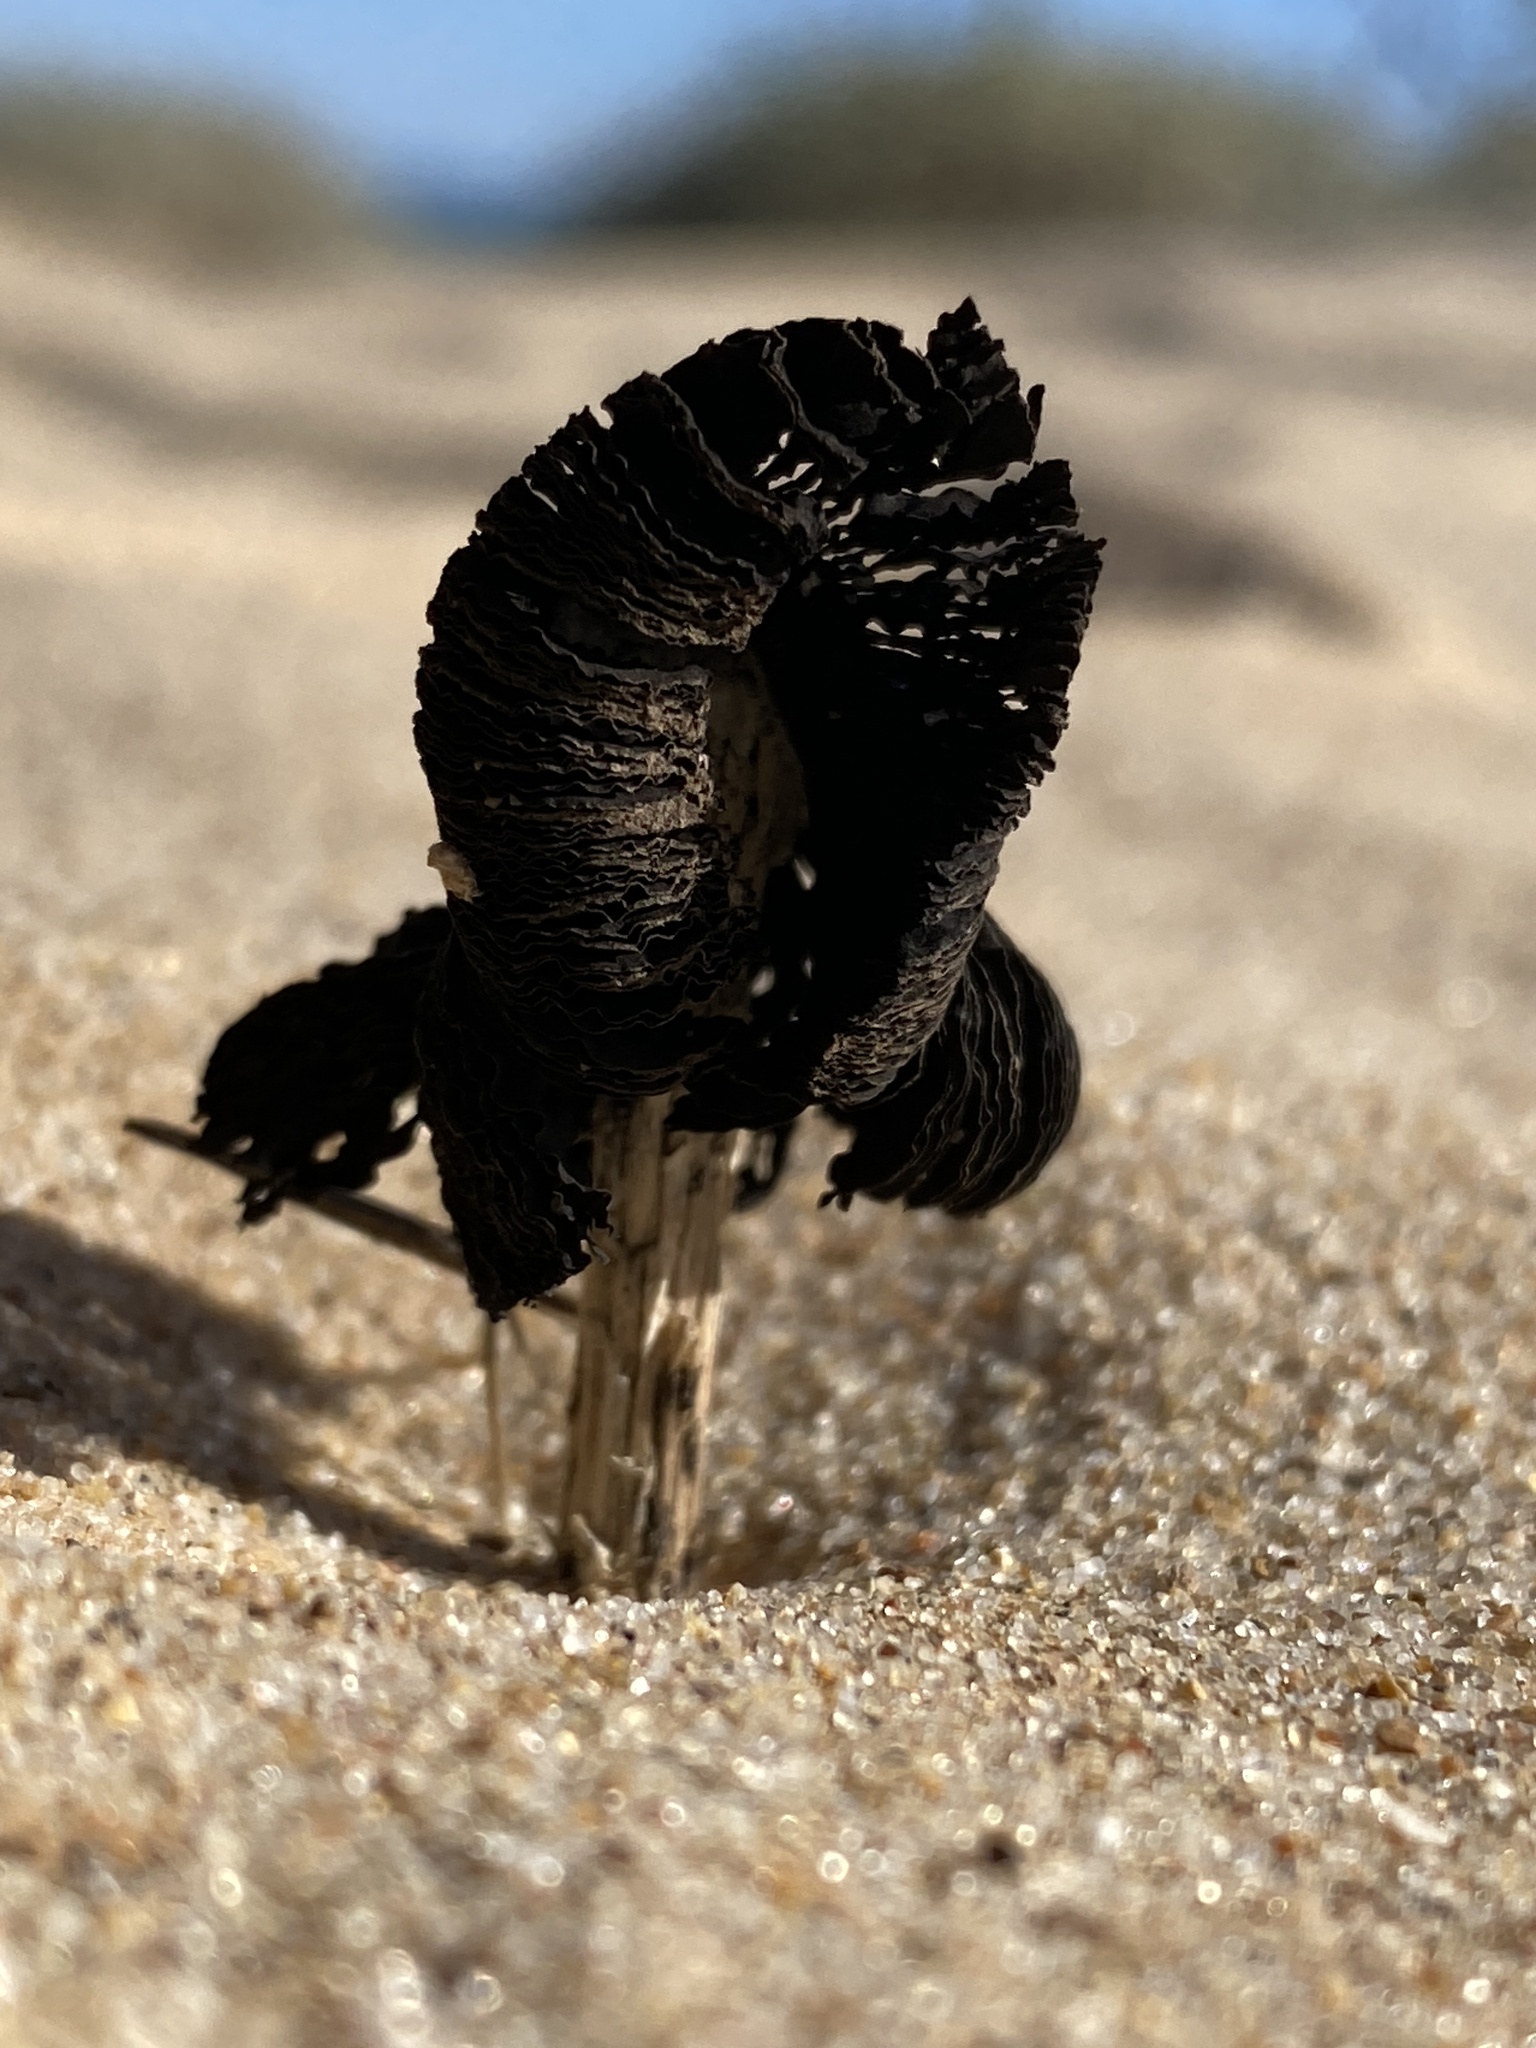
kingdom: Fungi
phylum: Basidiomycota
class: Agaricomycetes
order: Agaricales
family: Agaricaceae
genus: Montagnea
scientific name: Montagnea arenaria
